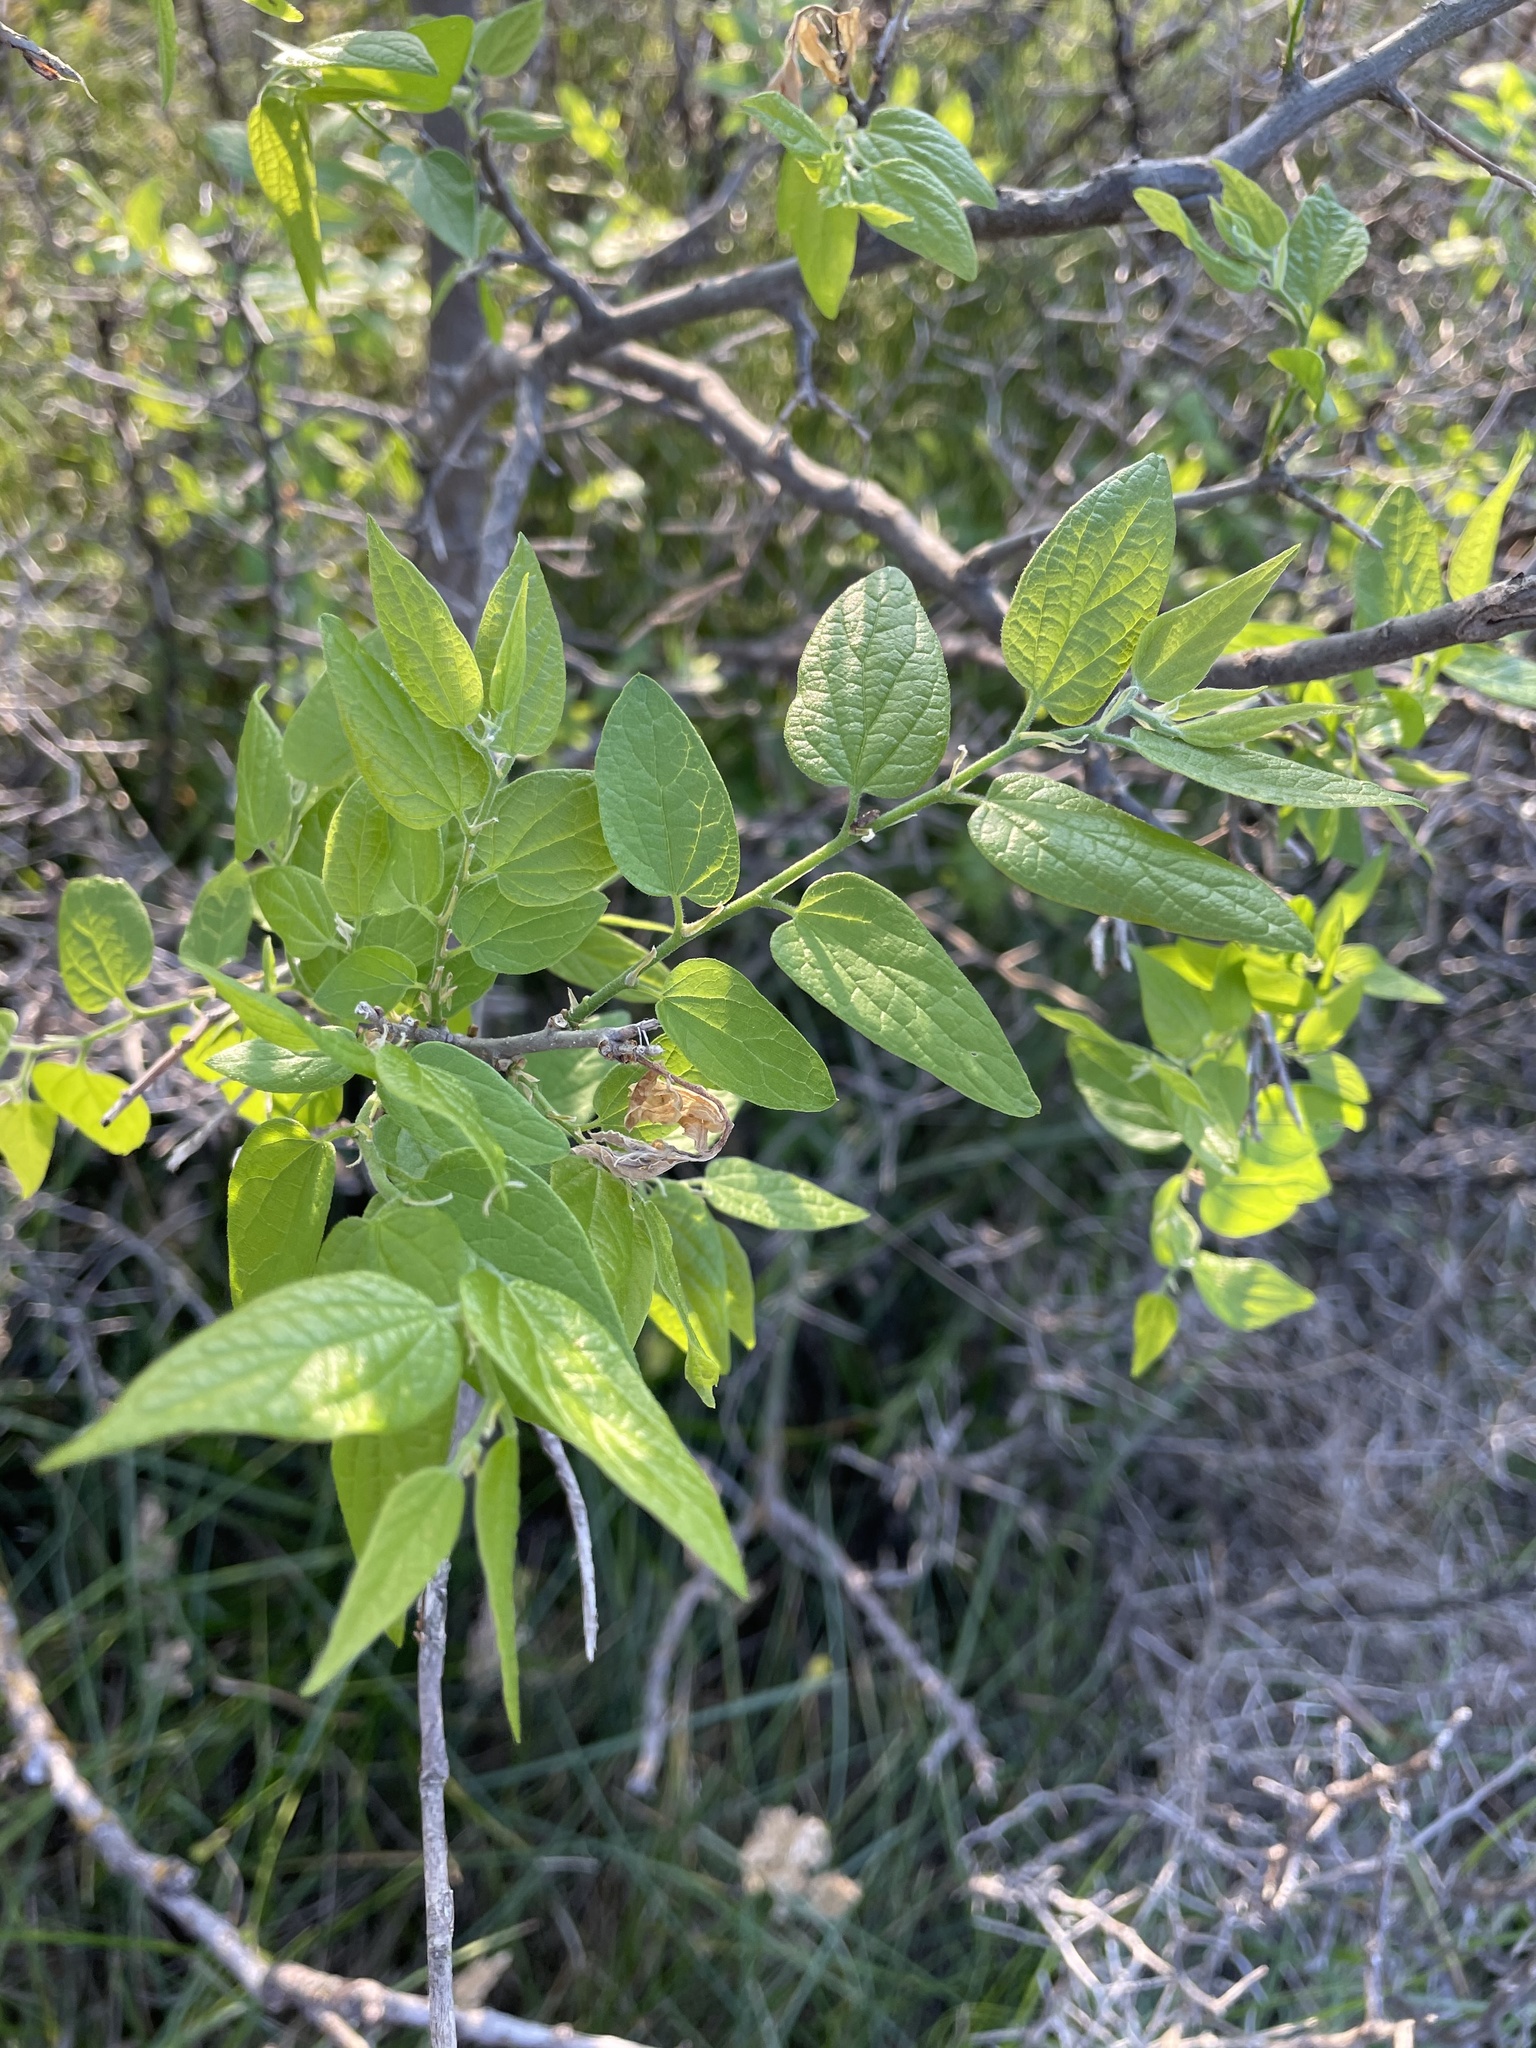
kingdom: Plantae
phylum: Tracheophyta
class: Magnoliopsida
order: Rosales
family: Cannabaceae
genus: Celtis
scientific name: Celtis reticulata
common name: Netleaf hackberry
